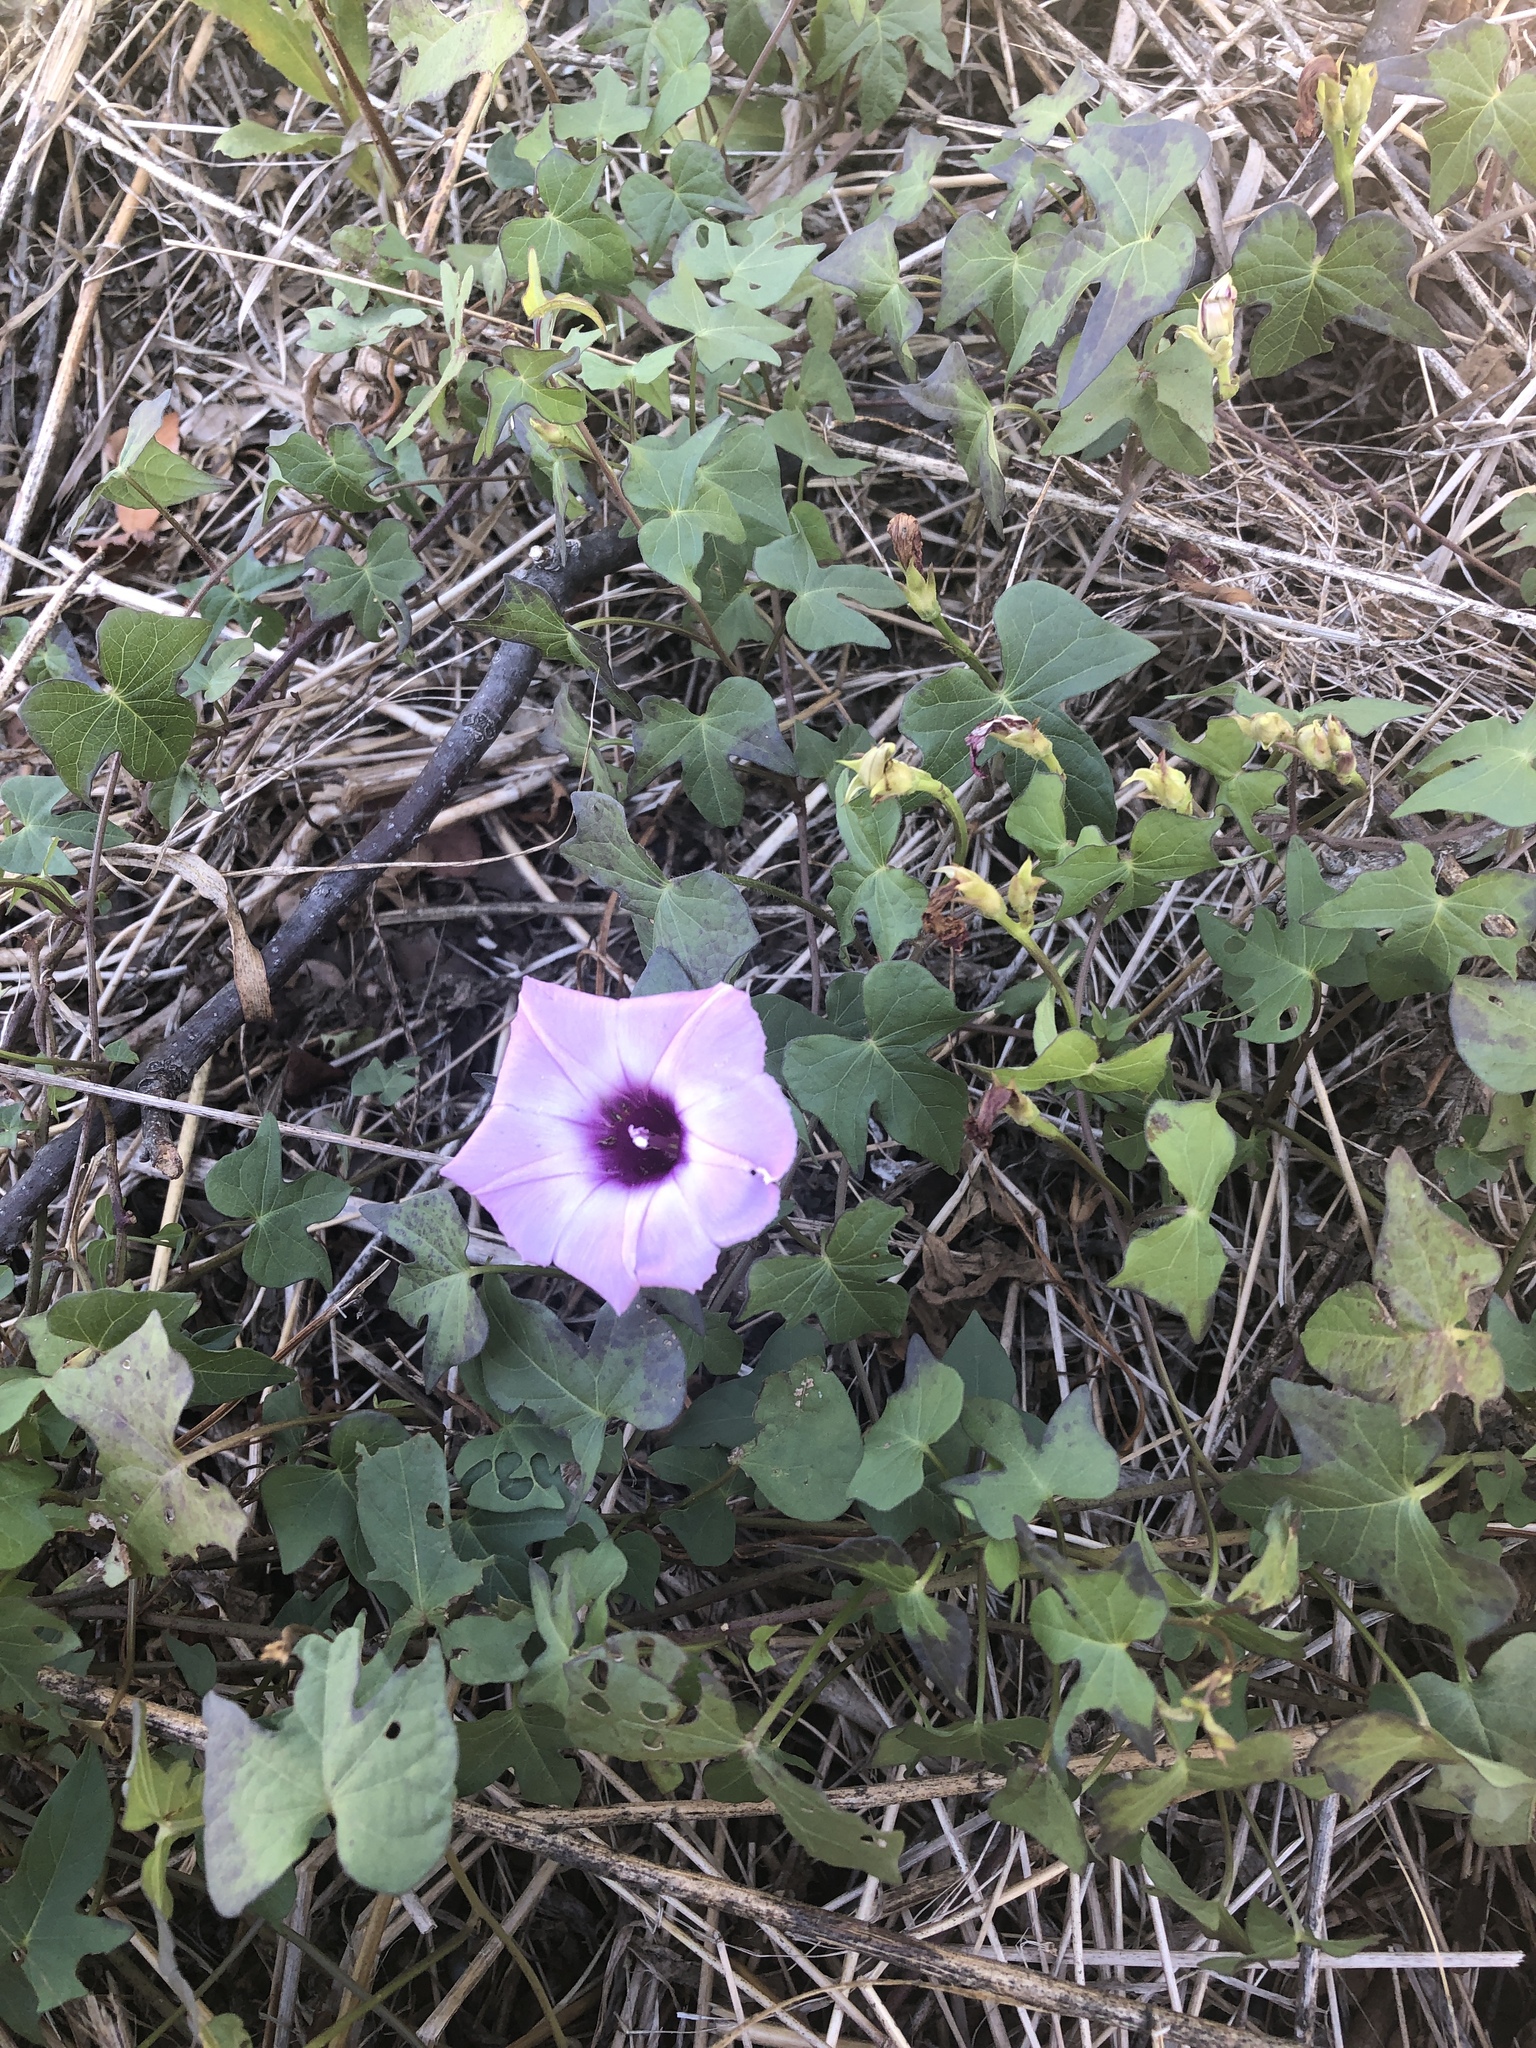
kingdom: Plantae
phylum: Tracheophyta
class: Magnoliopsida
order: Solanales
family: Convolvulaceae
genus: Ipomoea
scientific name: Ipomoea cordatotriloba
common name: Cotton morning glory
